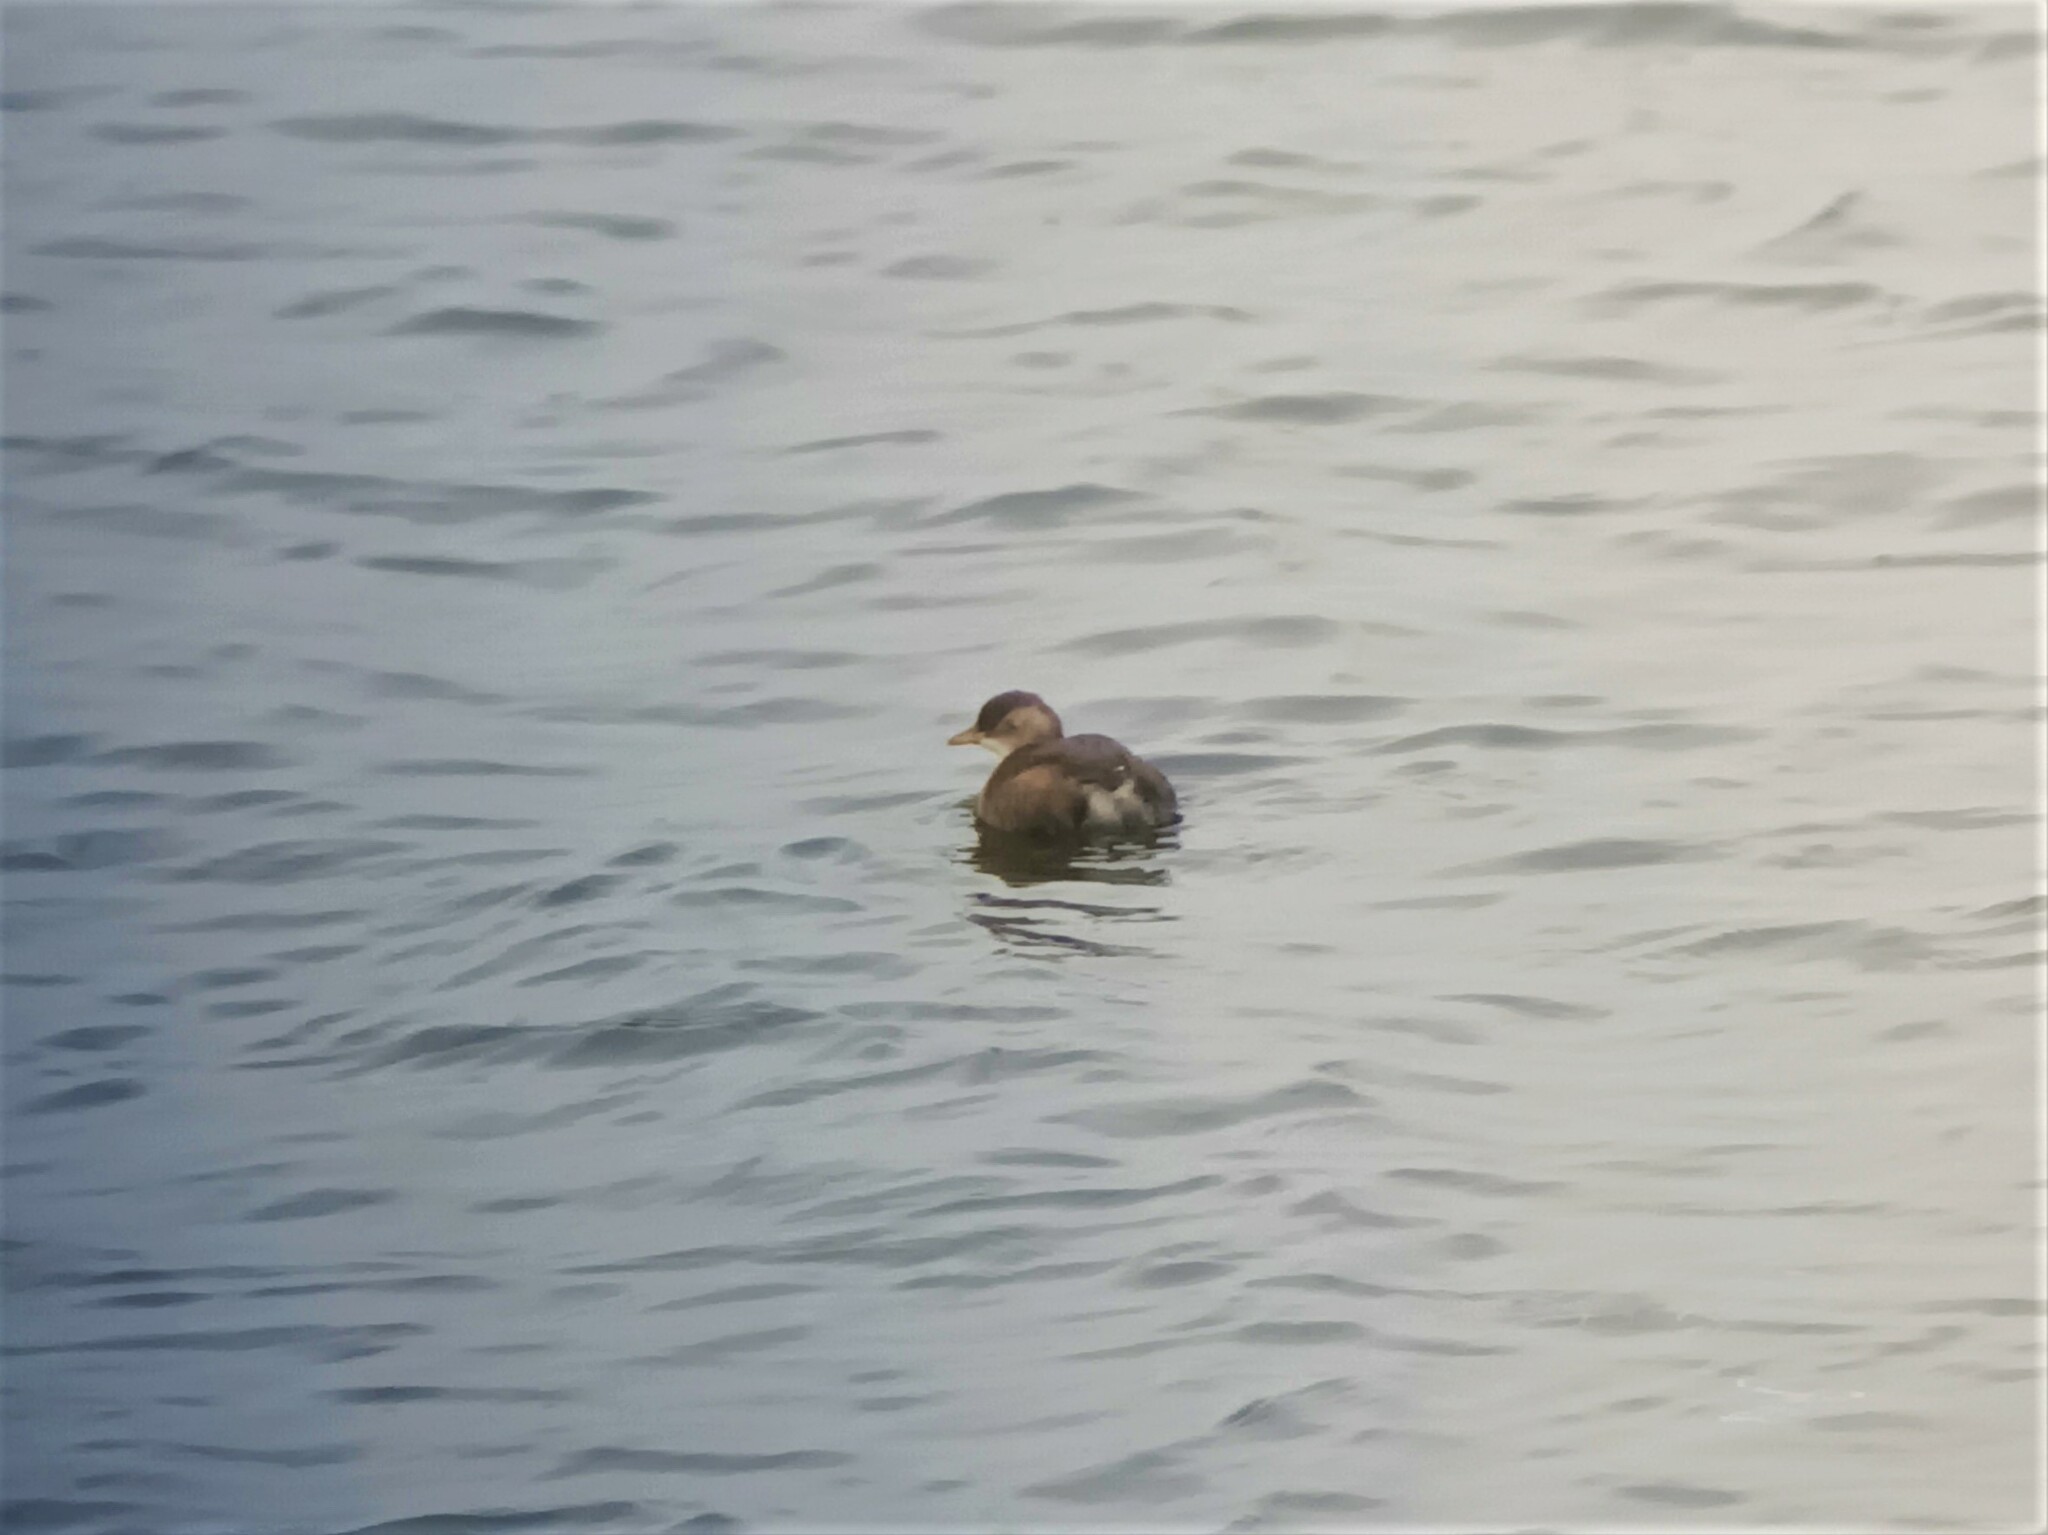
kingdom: Animalia
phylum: Chordata
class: Aves
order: Podicipediformes
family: Podicipedidae
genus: Tachybaptus
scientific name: Tachybaptus ruficollis
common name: Little grebe
